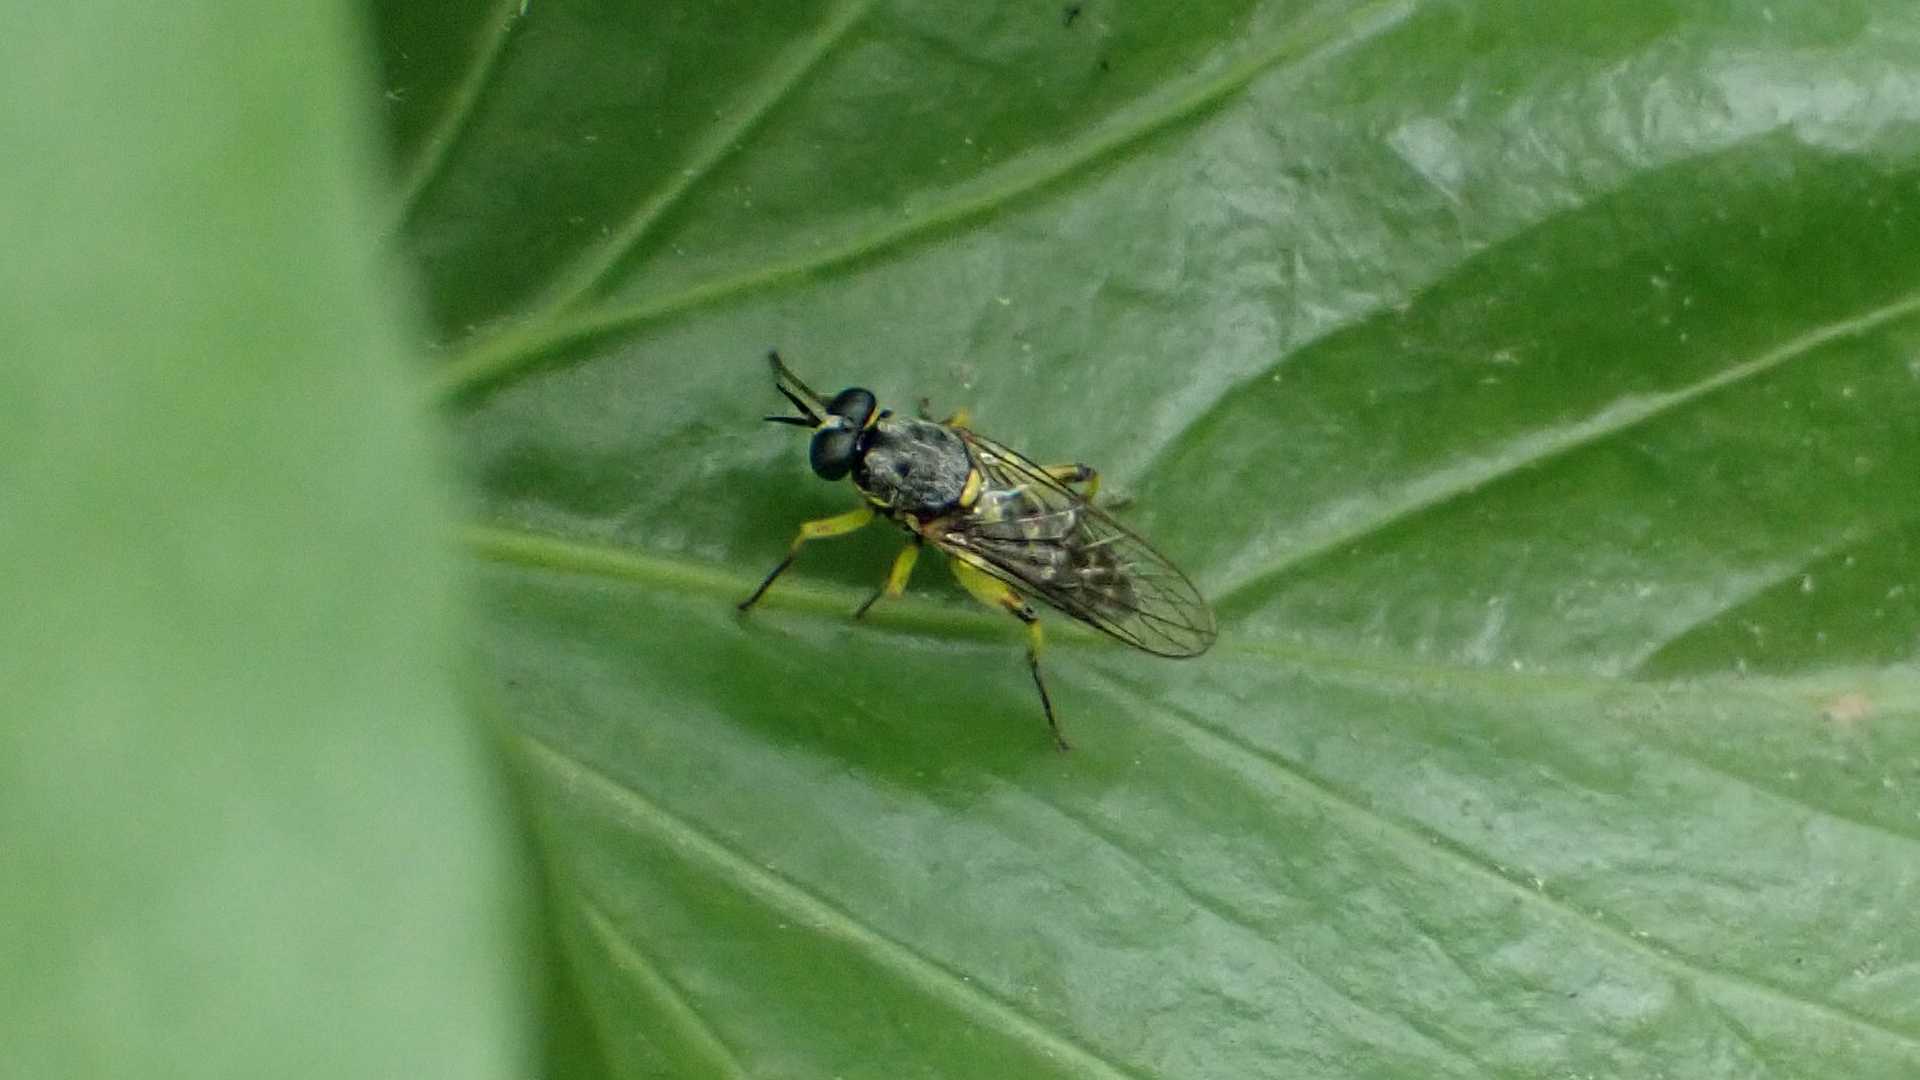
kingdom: Animalia
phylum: Arthropoda
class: Insecta
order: Diptera
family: Xylomyidae
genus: Solva
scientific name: Solva marginata
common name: Drab wood-soldierfly
